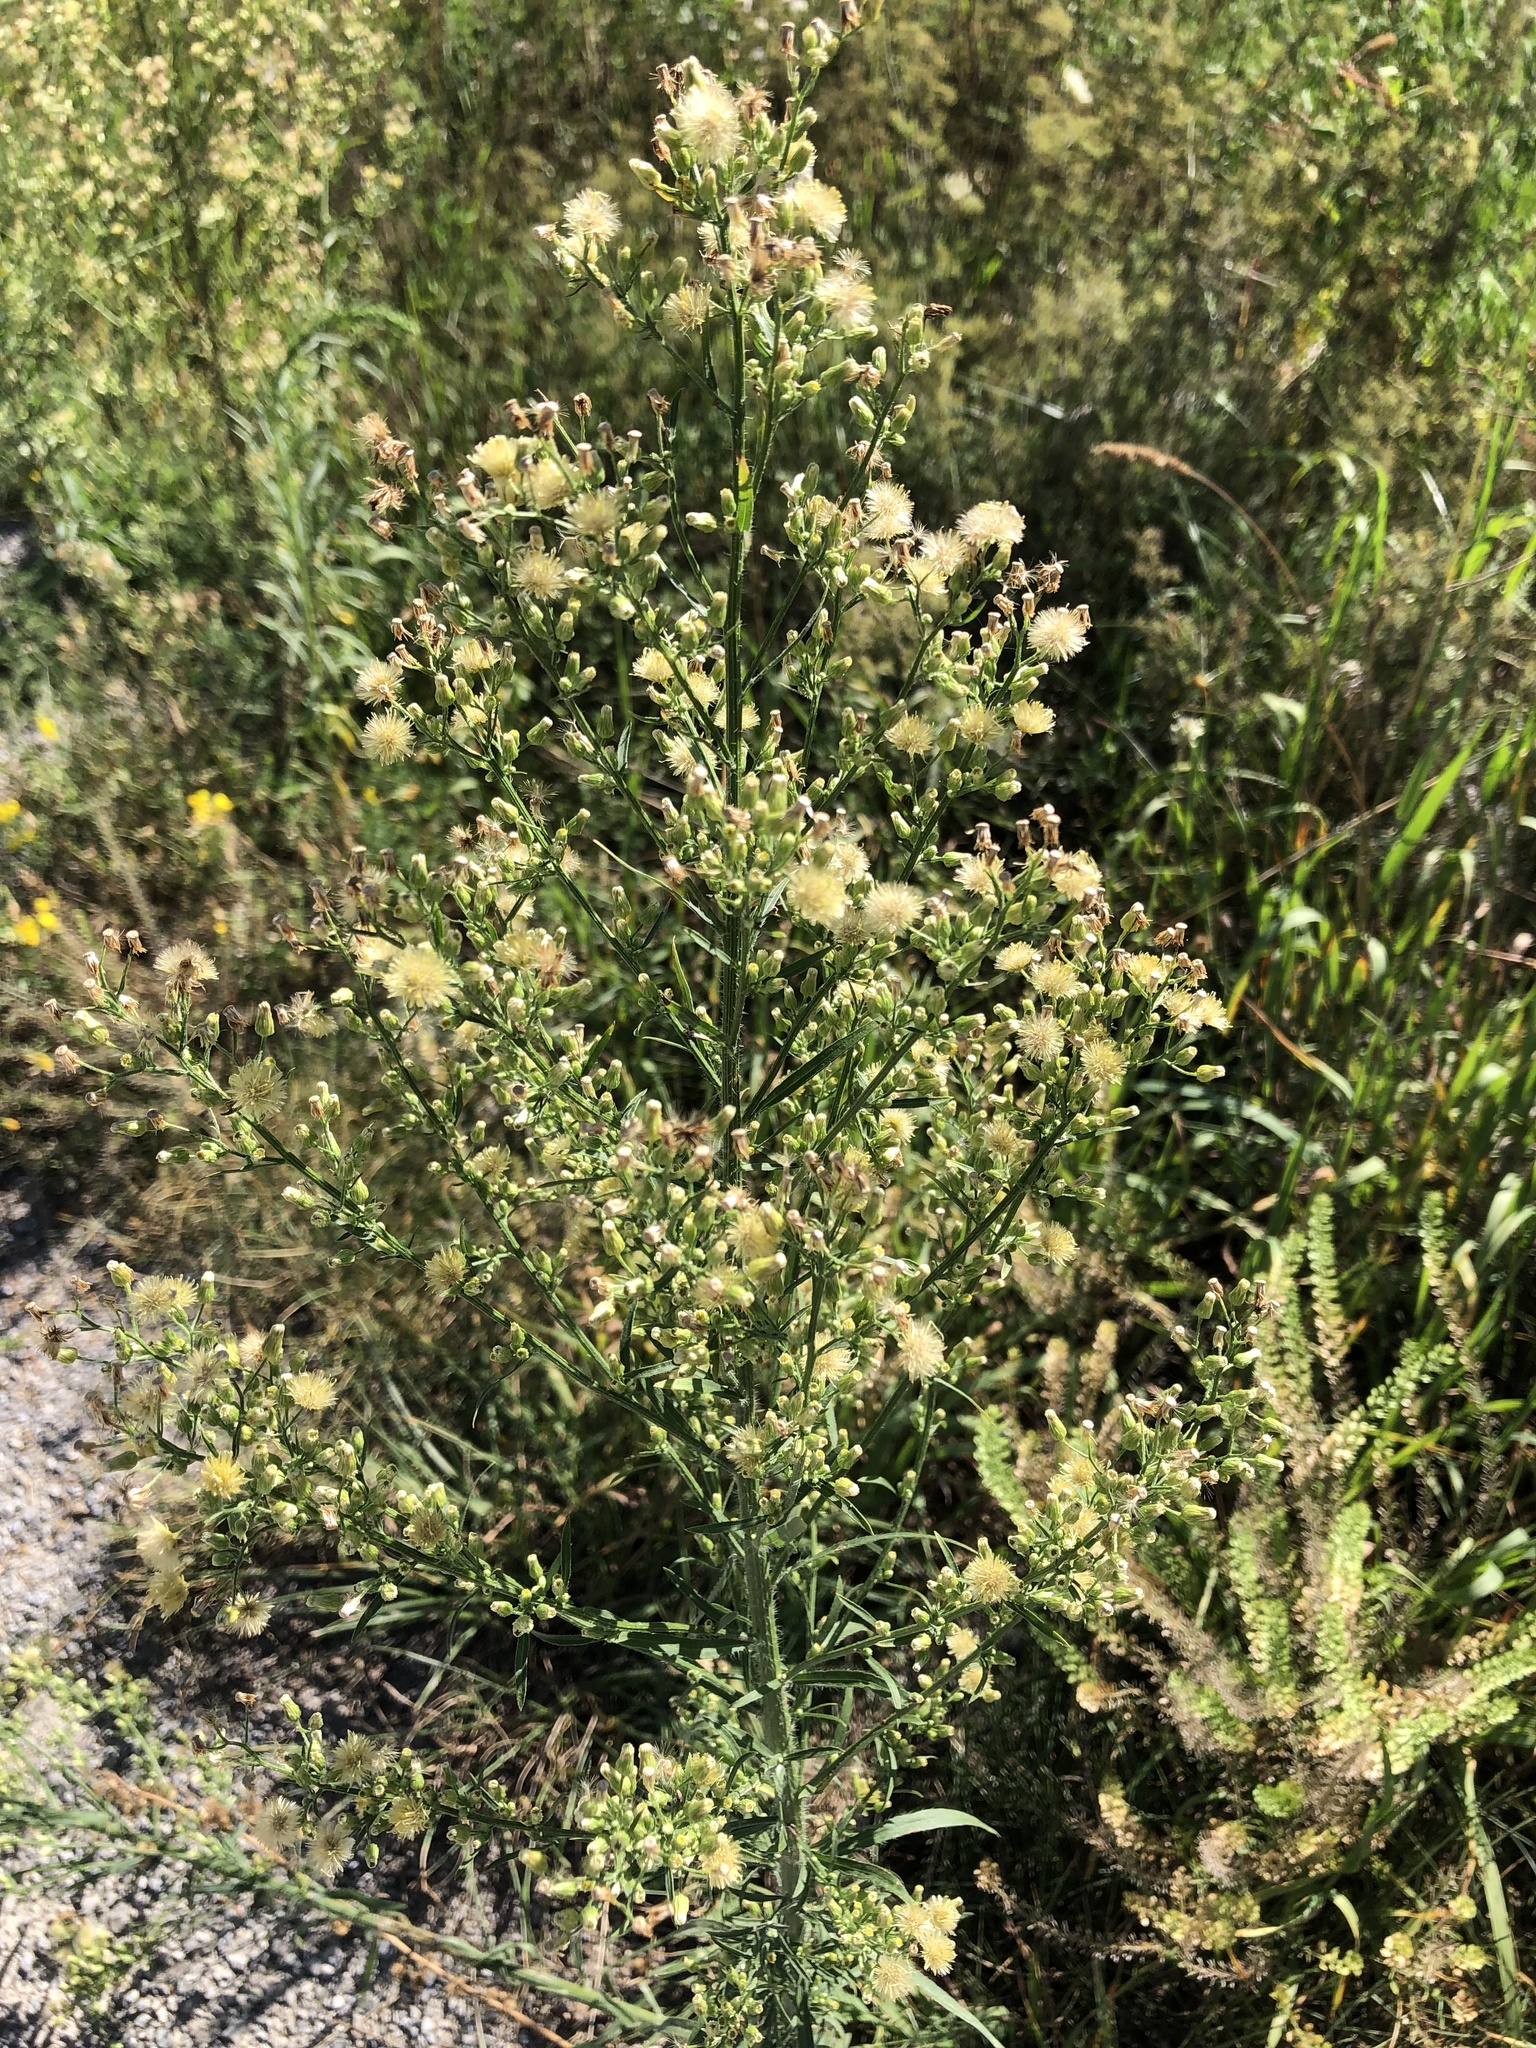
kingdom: Plantae
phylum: Tracheophyta
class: Magnoliopsida
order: Asterales
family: Asteraceae
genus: Erigeron
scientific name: Erigeron canadensis
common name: Canadian fleabane
